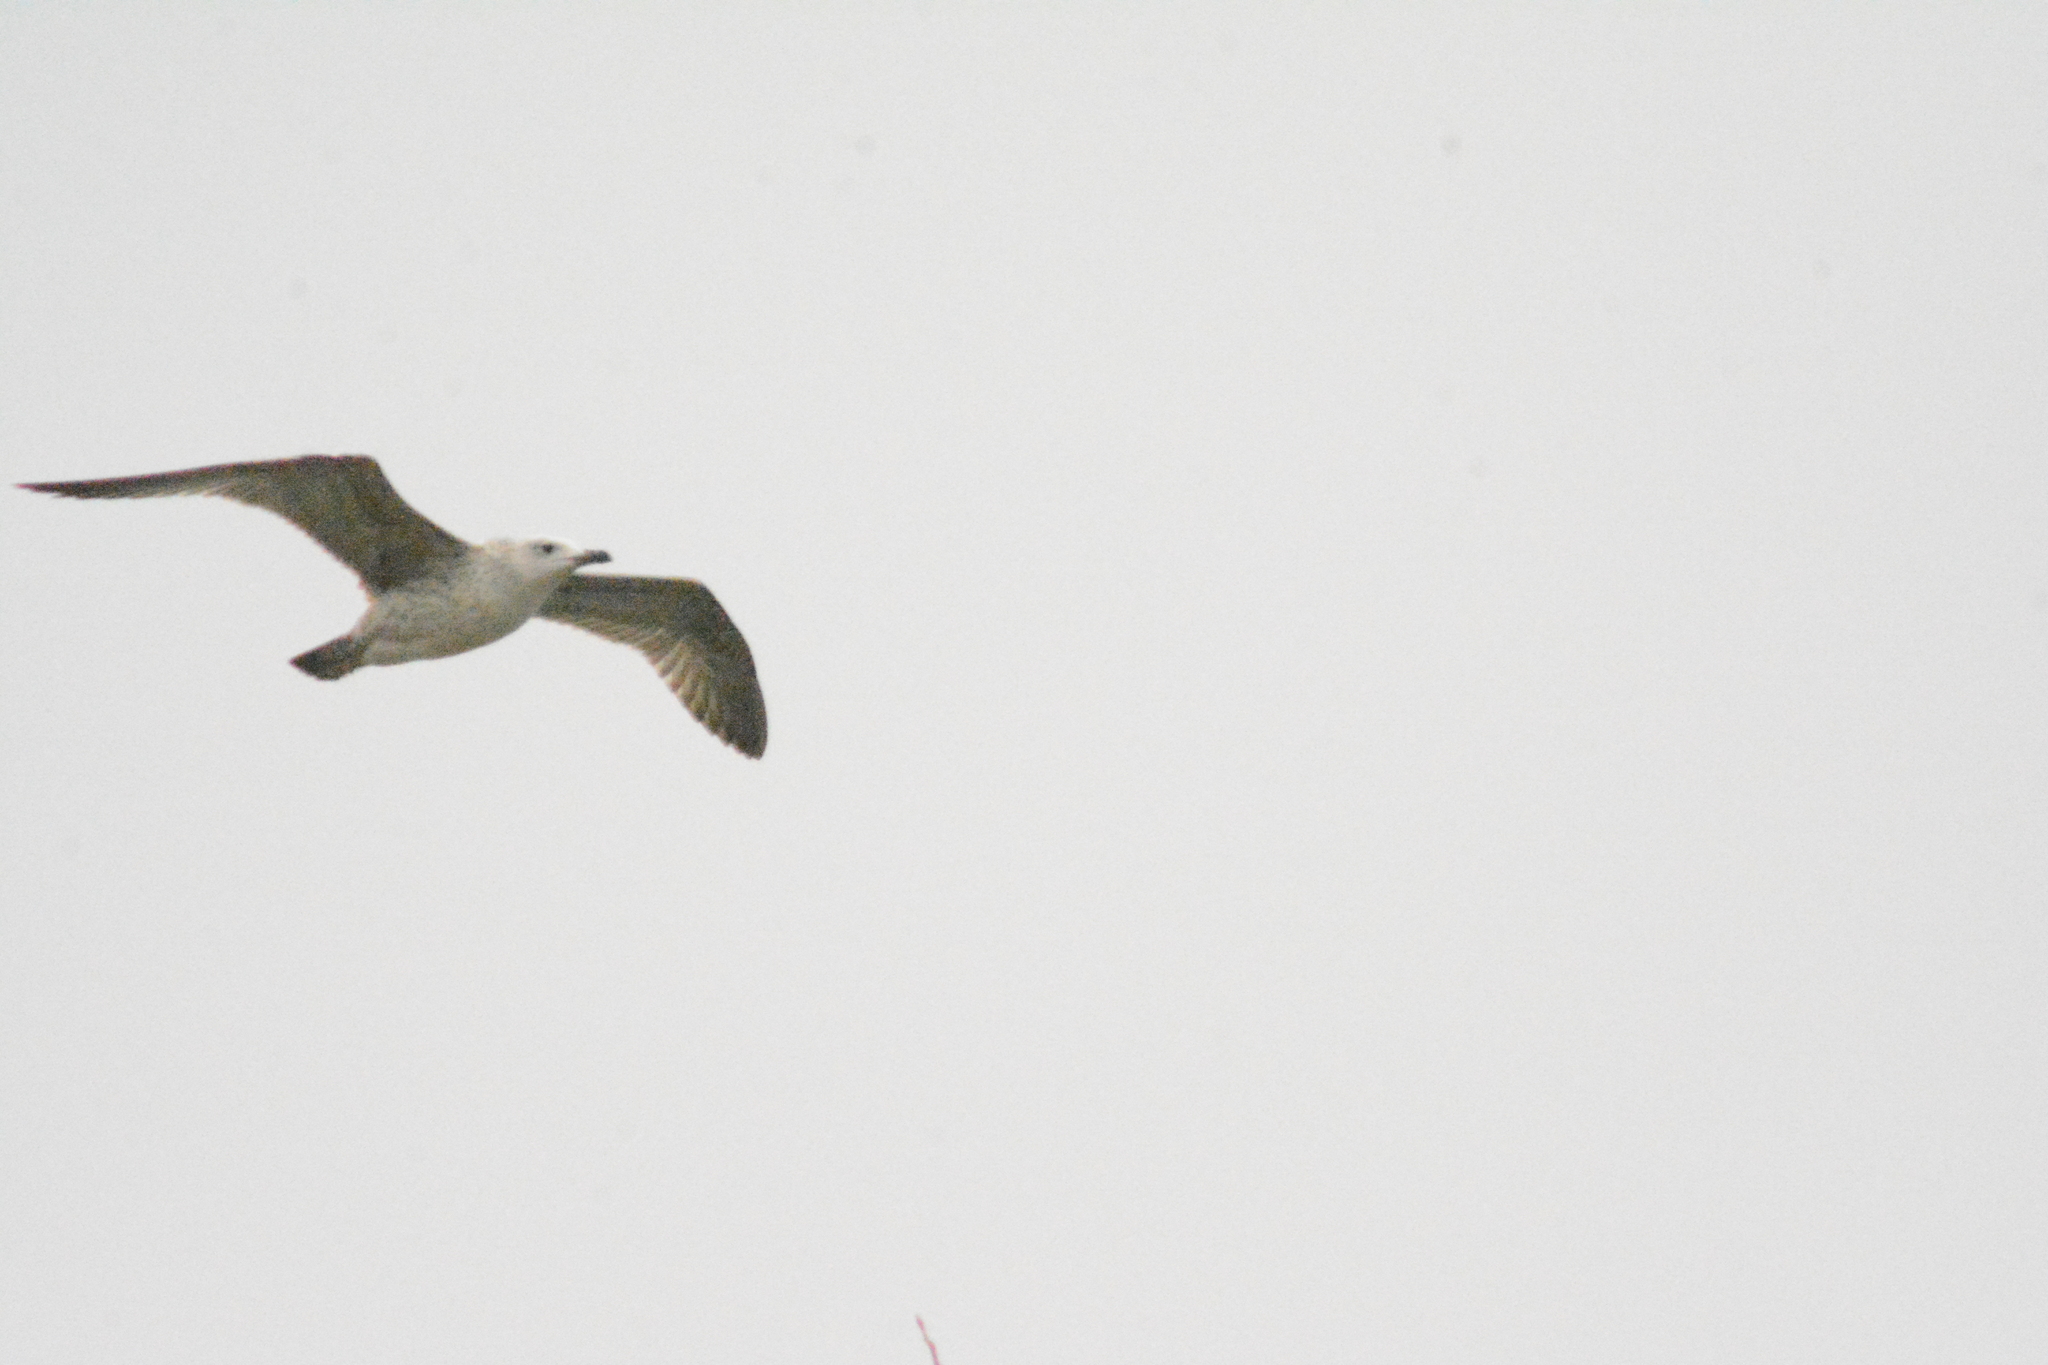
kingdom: Animalia
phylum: Chordata
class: Aves
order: Charadriiformes
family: Laridae
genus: Larus
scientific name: Larus cachinnans
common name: Caspian gull
